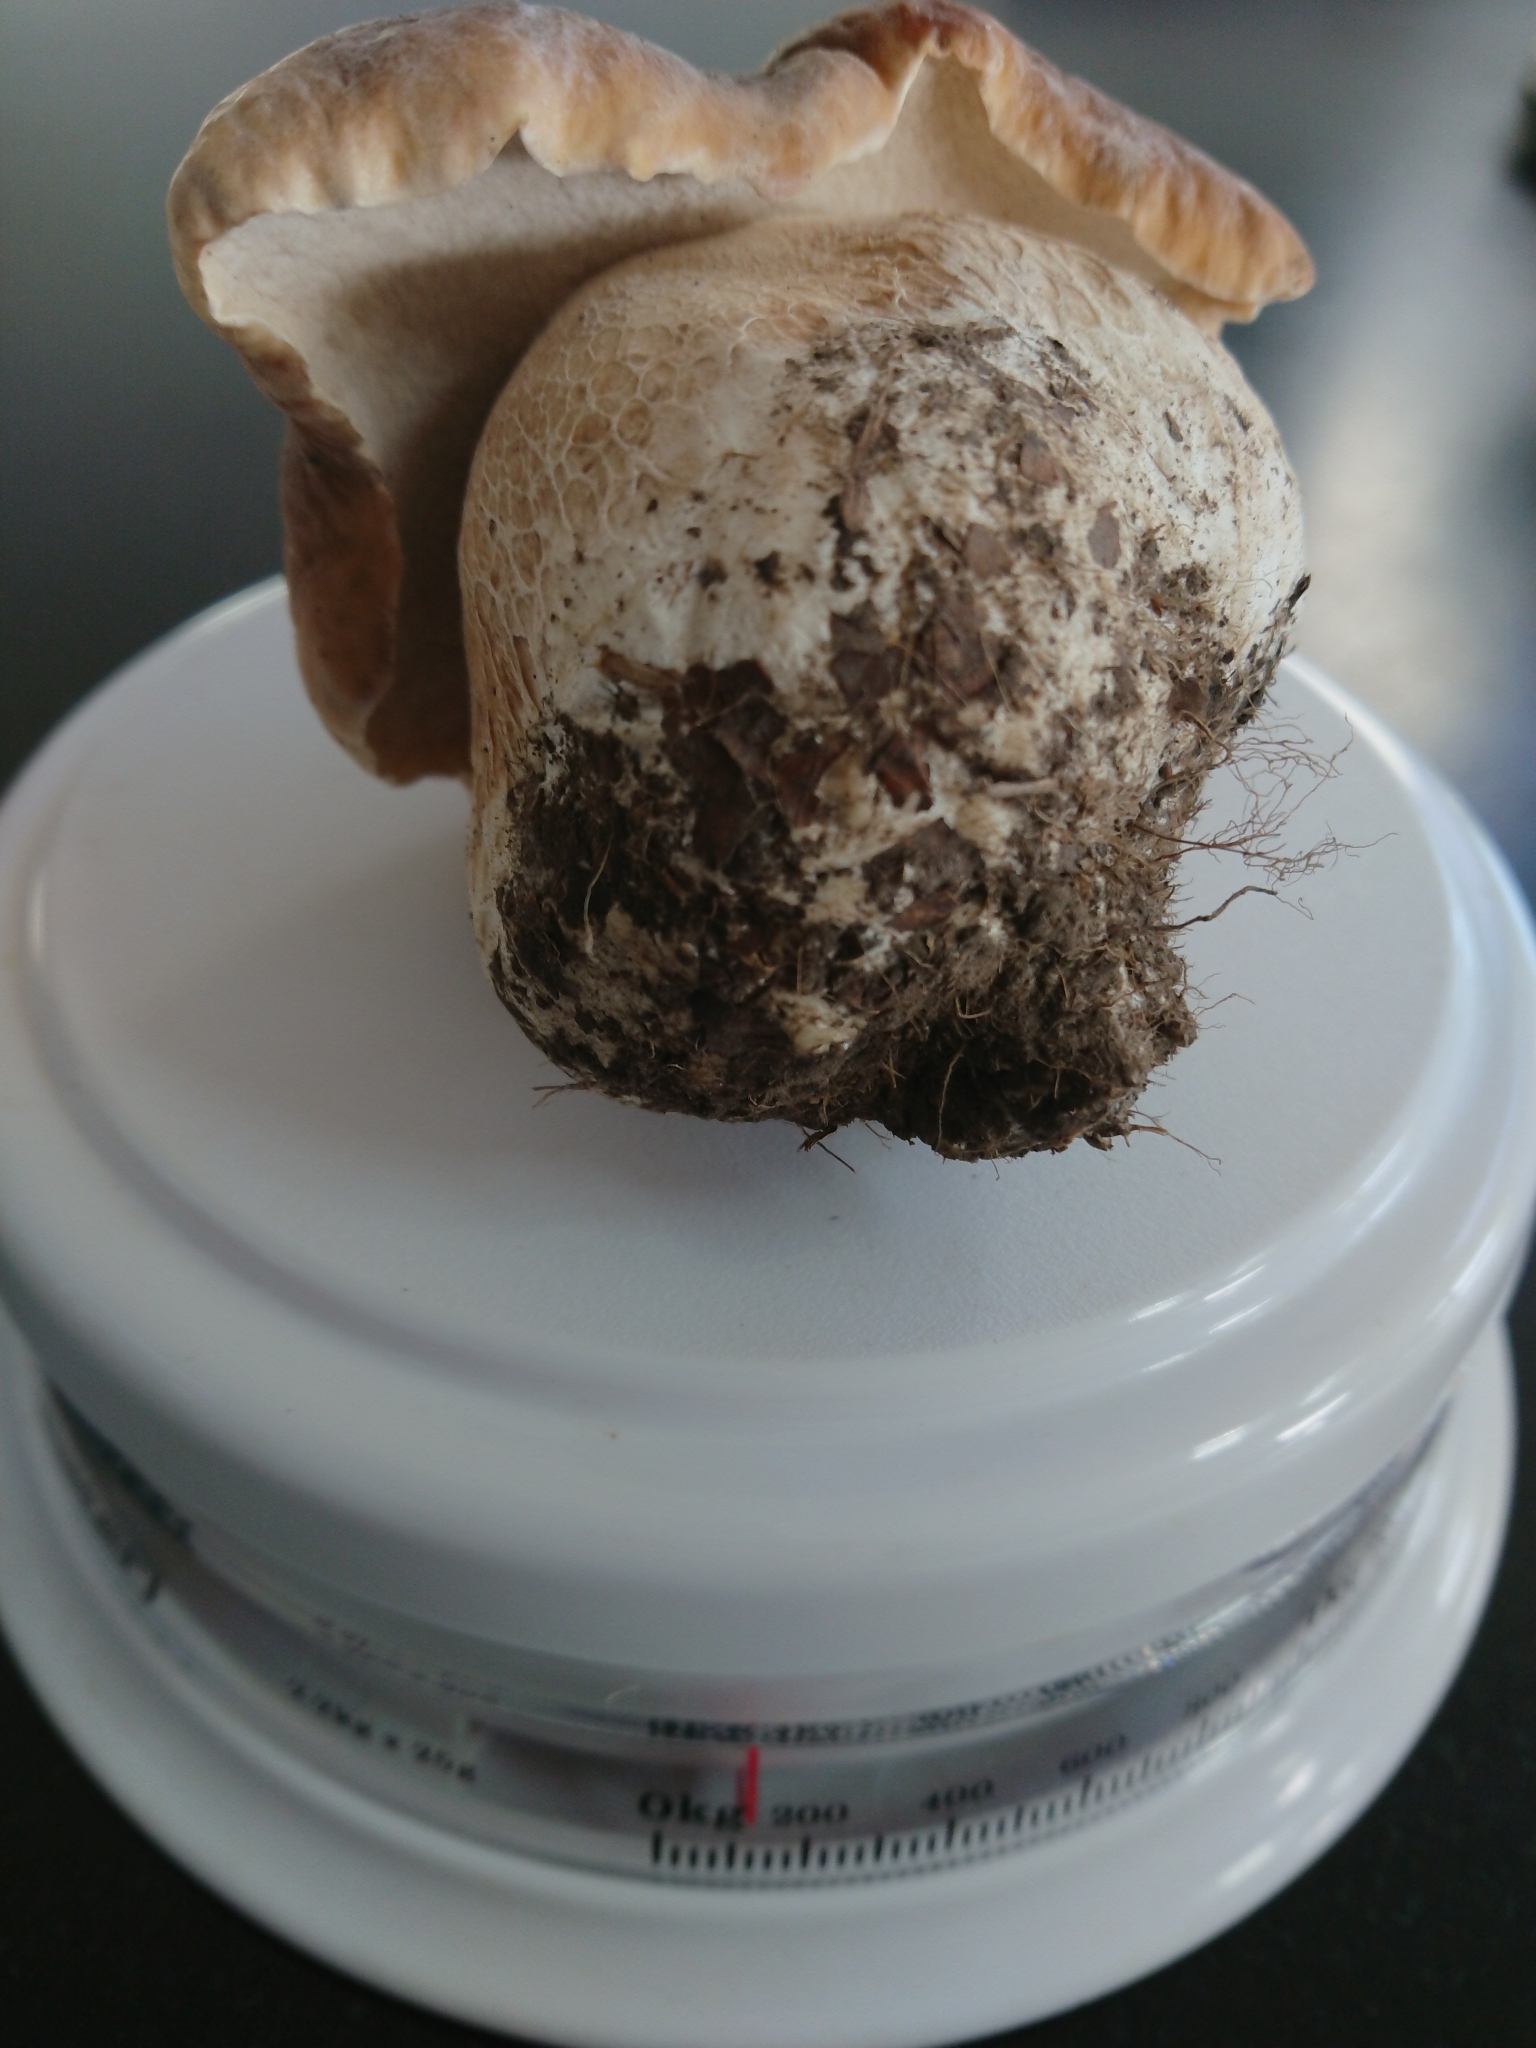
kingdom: Fungi
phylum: Basidiomycota
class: Agaricomycetes
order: Boletales
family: Boletaceae
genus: Boletus
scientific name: Boletus edulis
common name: Cep
